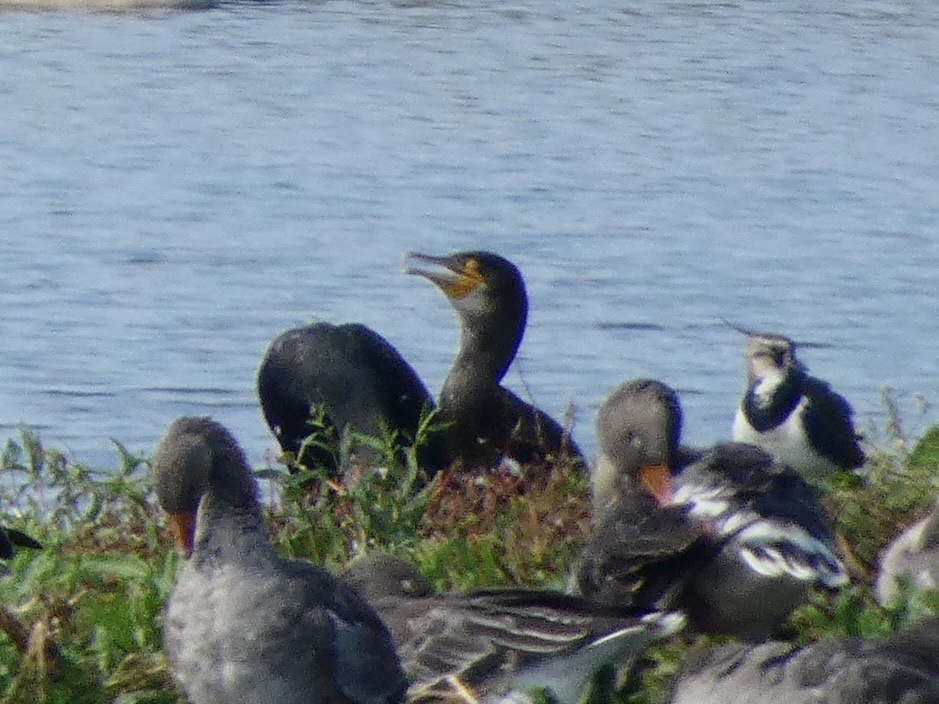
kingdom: Animalia
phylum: Chordata
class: Aves
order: Suliformes
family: Phalacrocoracidae
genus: Phalacrocorax
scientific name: Phalacrocorax carbo
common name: Great cormorant
